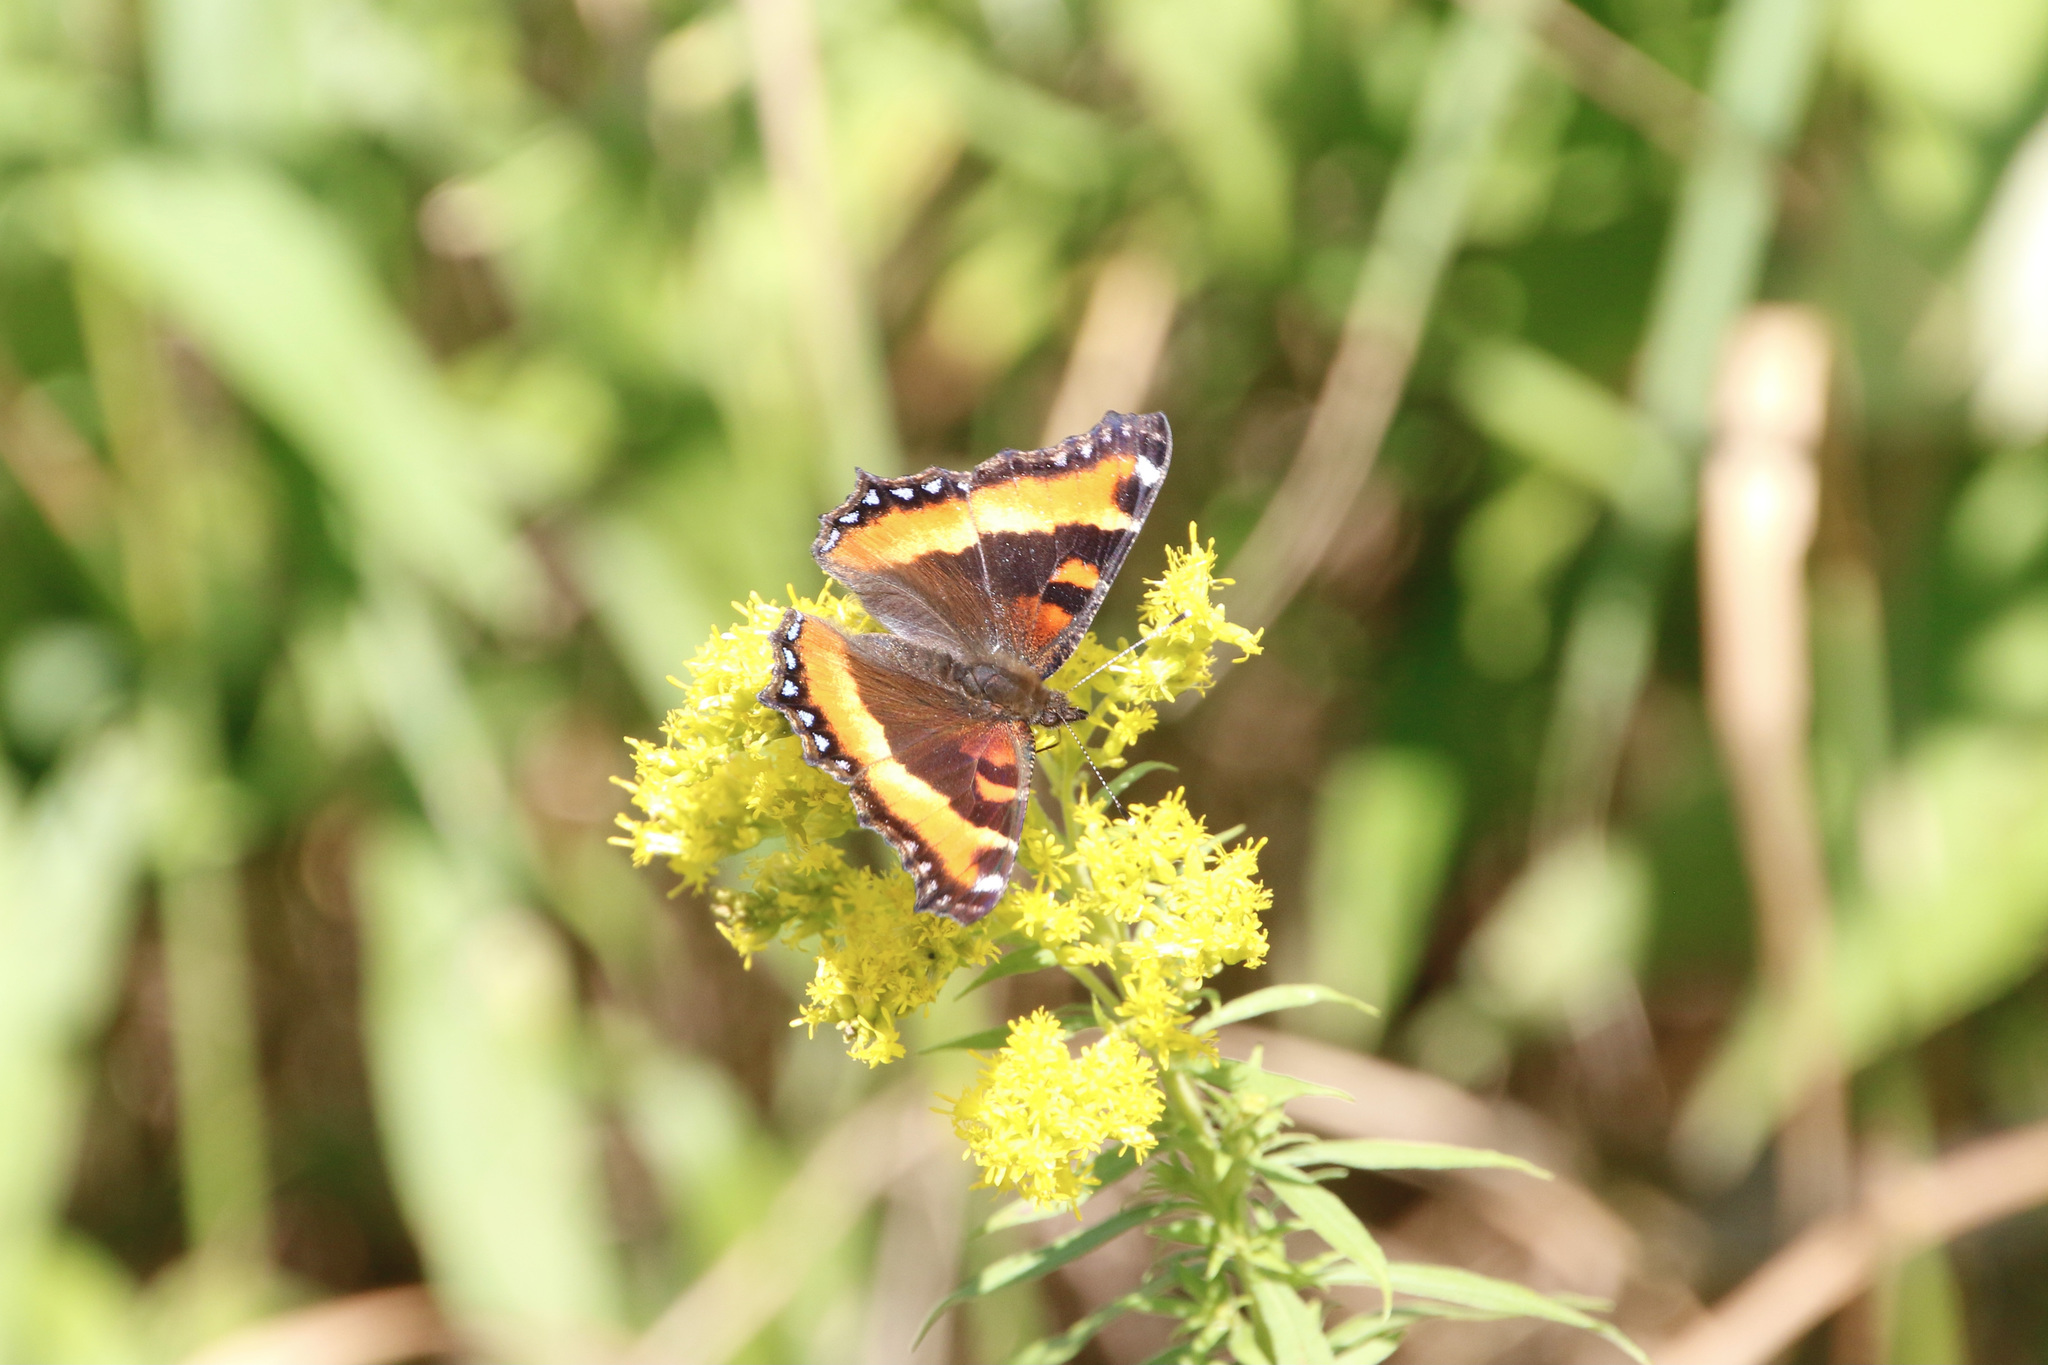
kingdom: Animalia
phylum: Arthropoda
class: Insecta
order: Lepidoptera
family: Nymphalidae
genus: Aglais
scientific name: Aglais milberti
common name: Milbert's tortoiseshell
